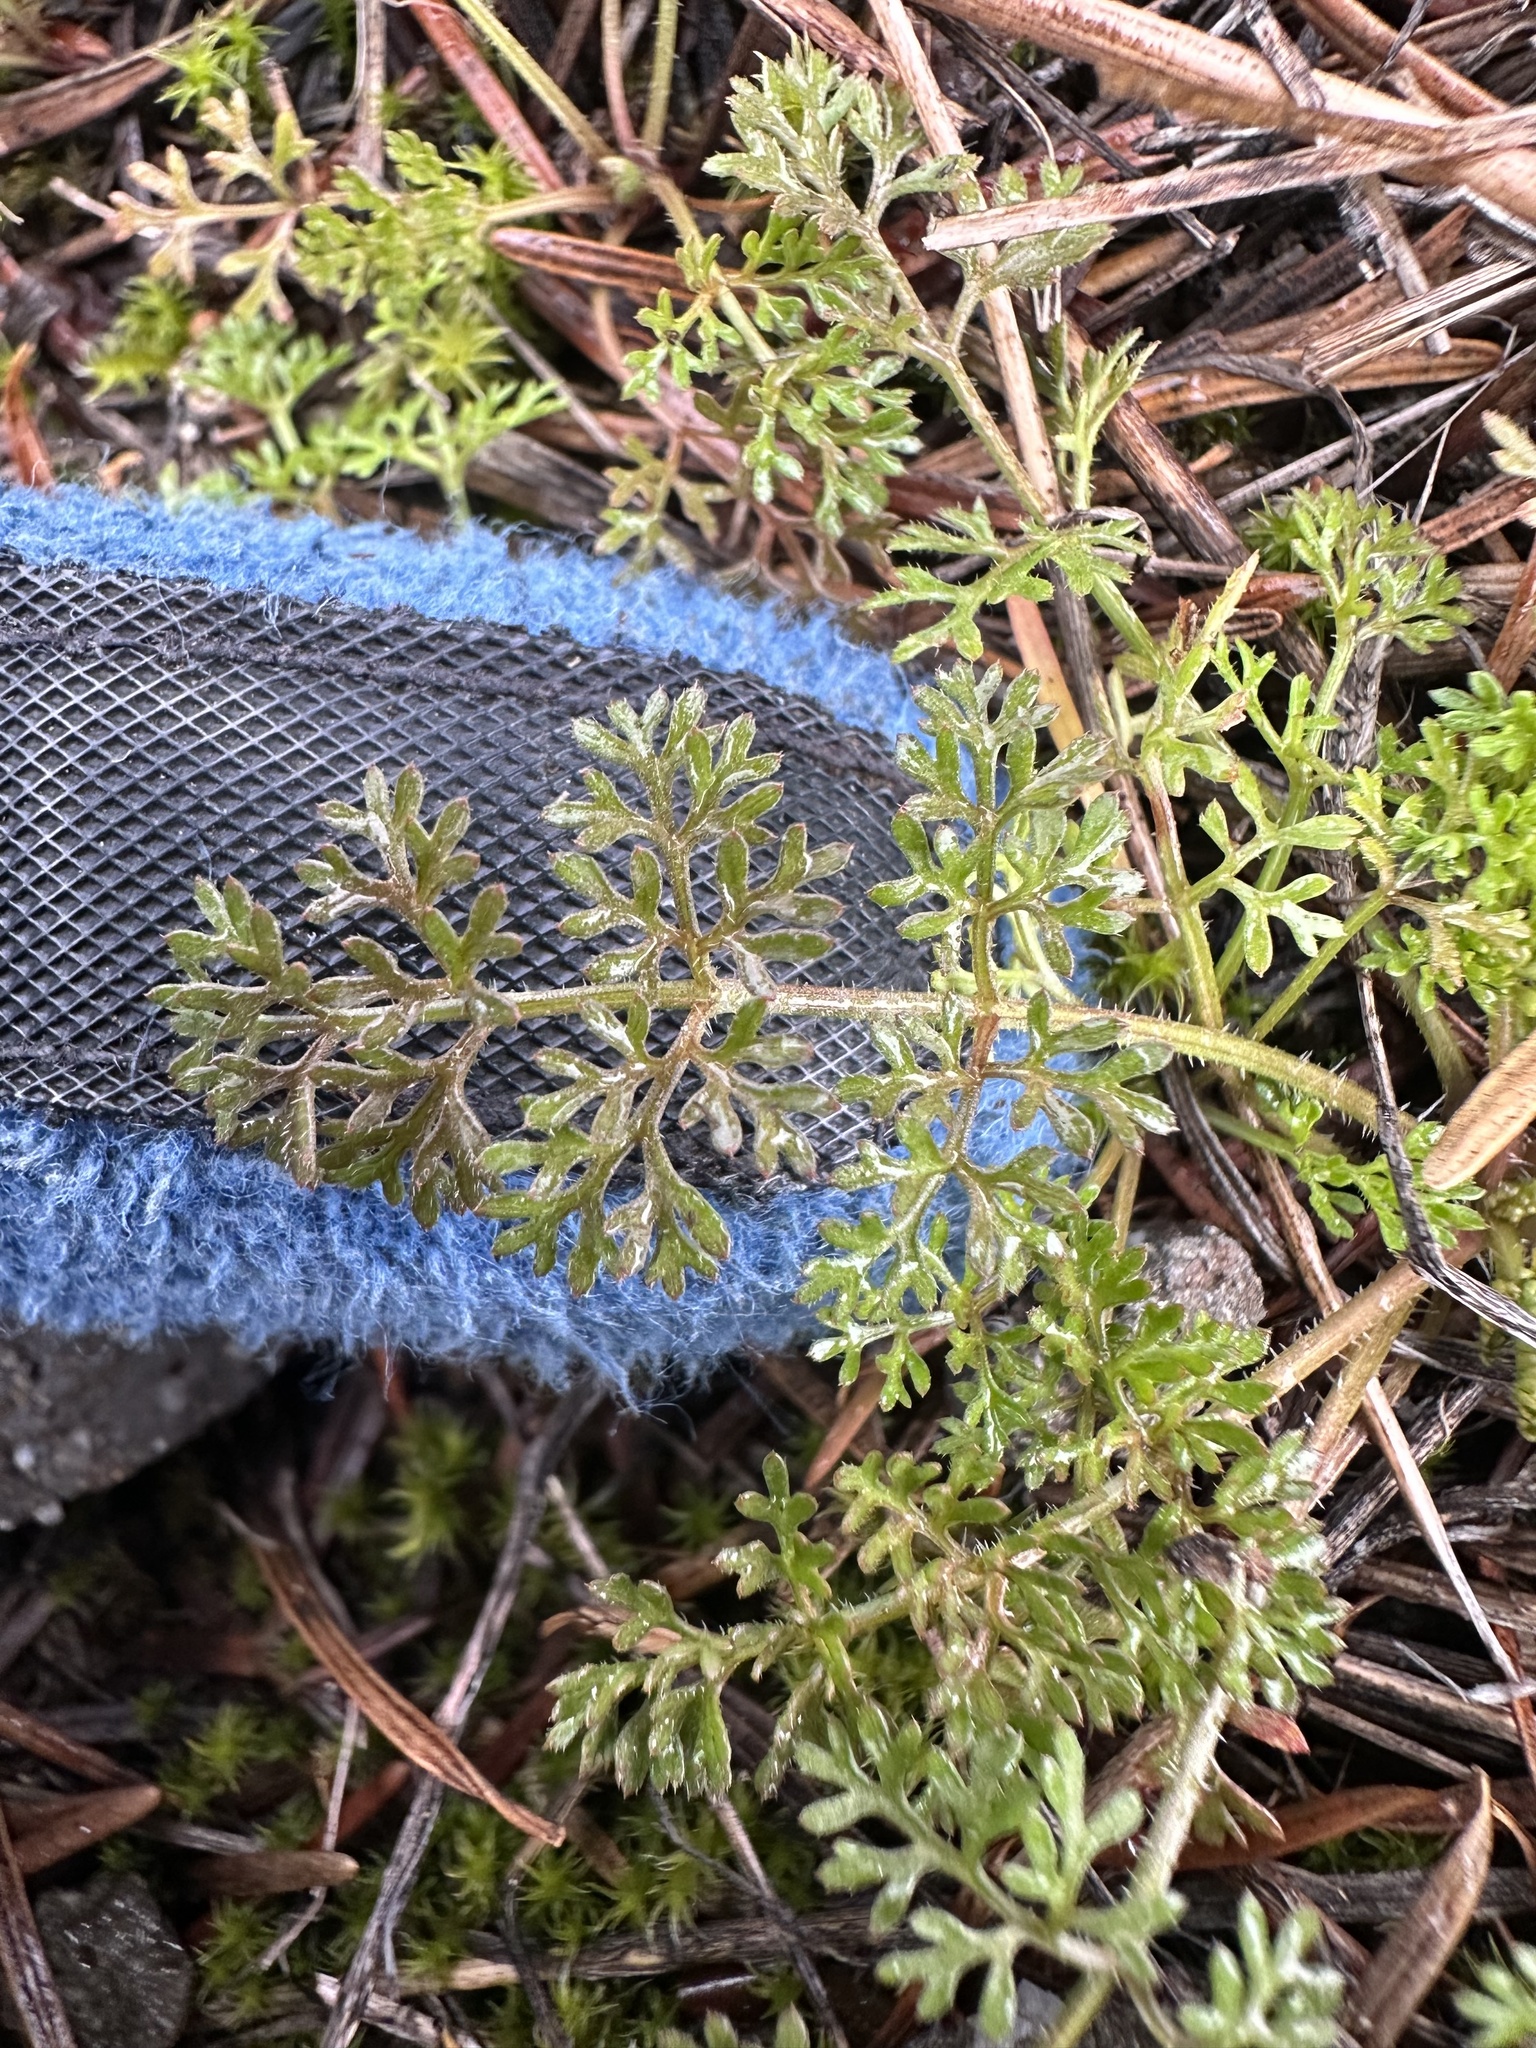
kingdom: Plantae
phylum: Tracheophyta
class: Magnoliopsida
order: Apiales
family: Apiaceae
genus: Daucus
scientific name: Daucus pusillus
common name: Southwest wild carrot
